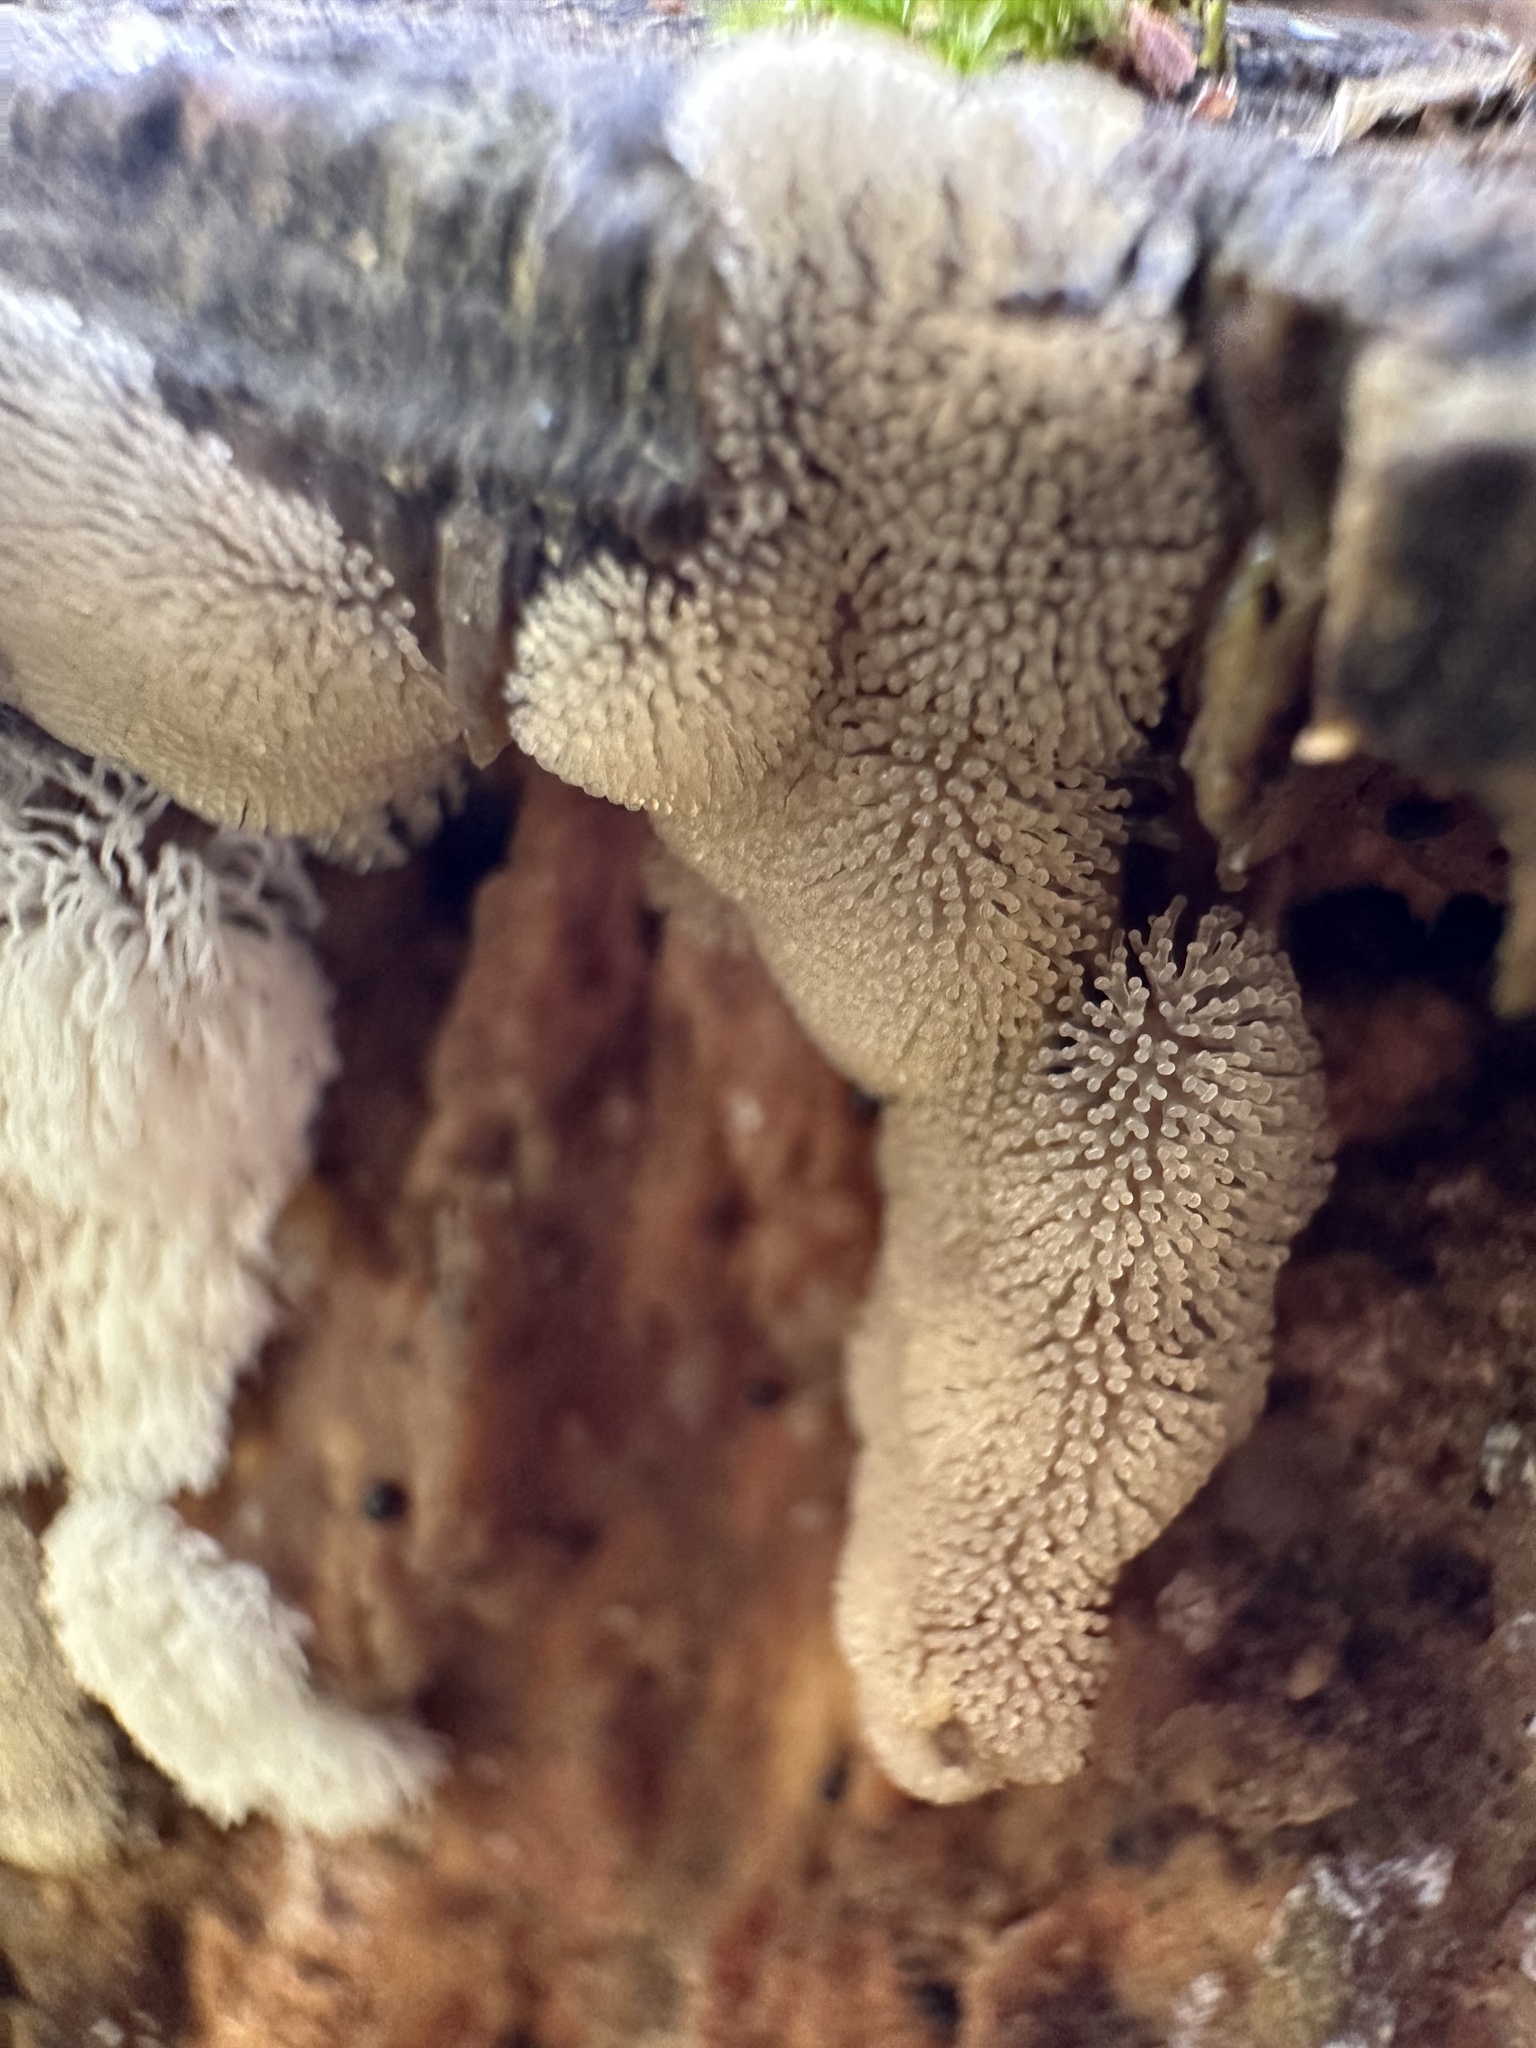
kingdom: Protozoa
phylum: Mycetozoa
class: Protosteliomycetes
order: Ceratiomyxales
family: Ceratiomyxaceae
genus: Ceratiomyxa
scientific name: Ceratiomyxa fruticulosa
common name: Honeycomb coral slime mold
